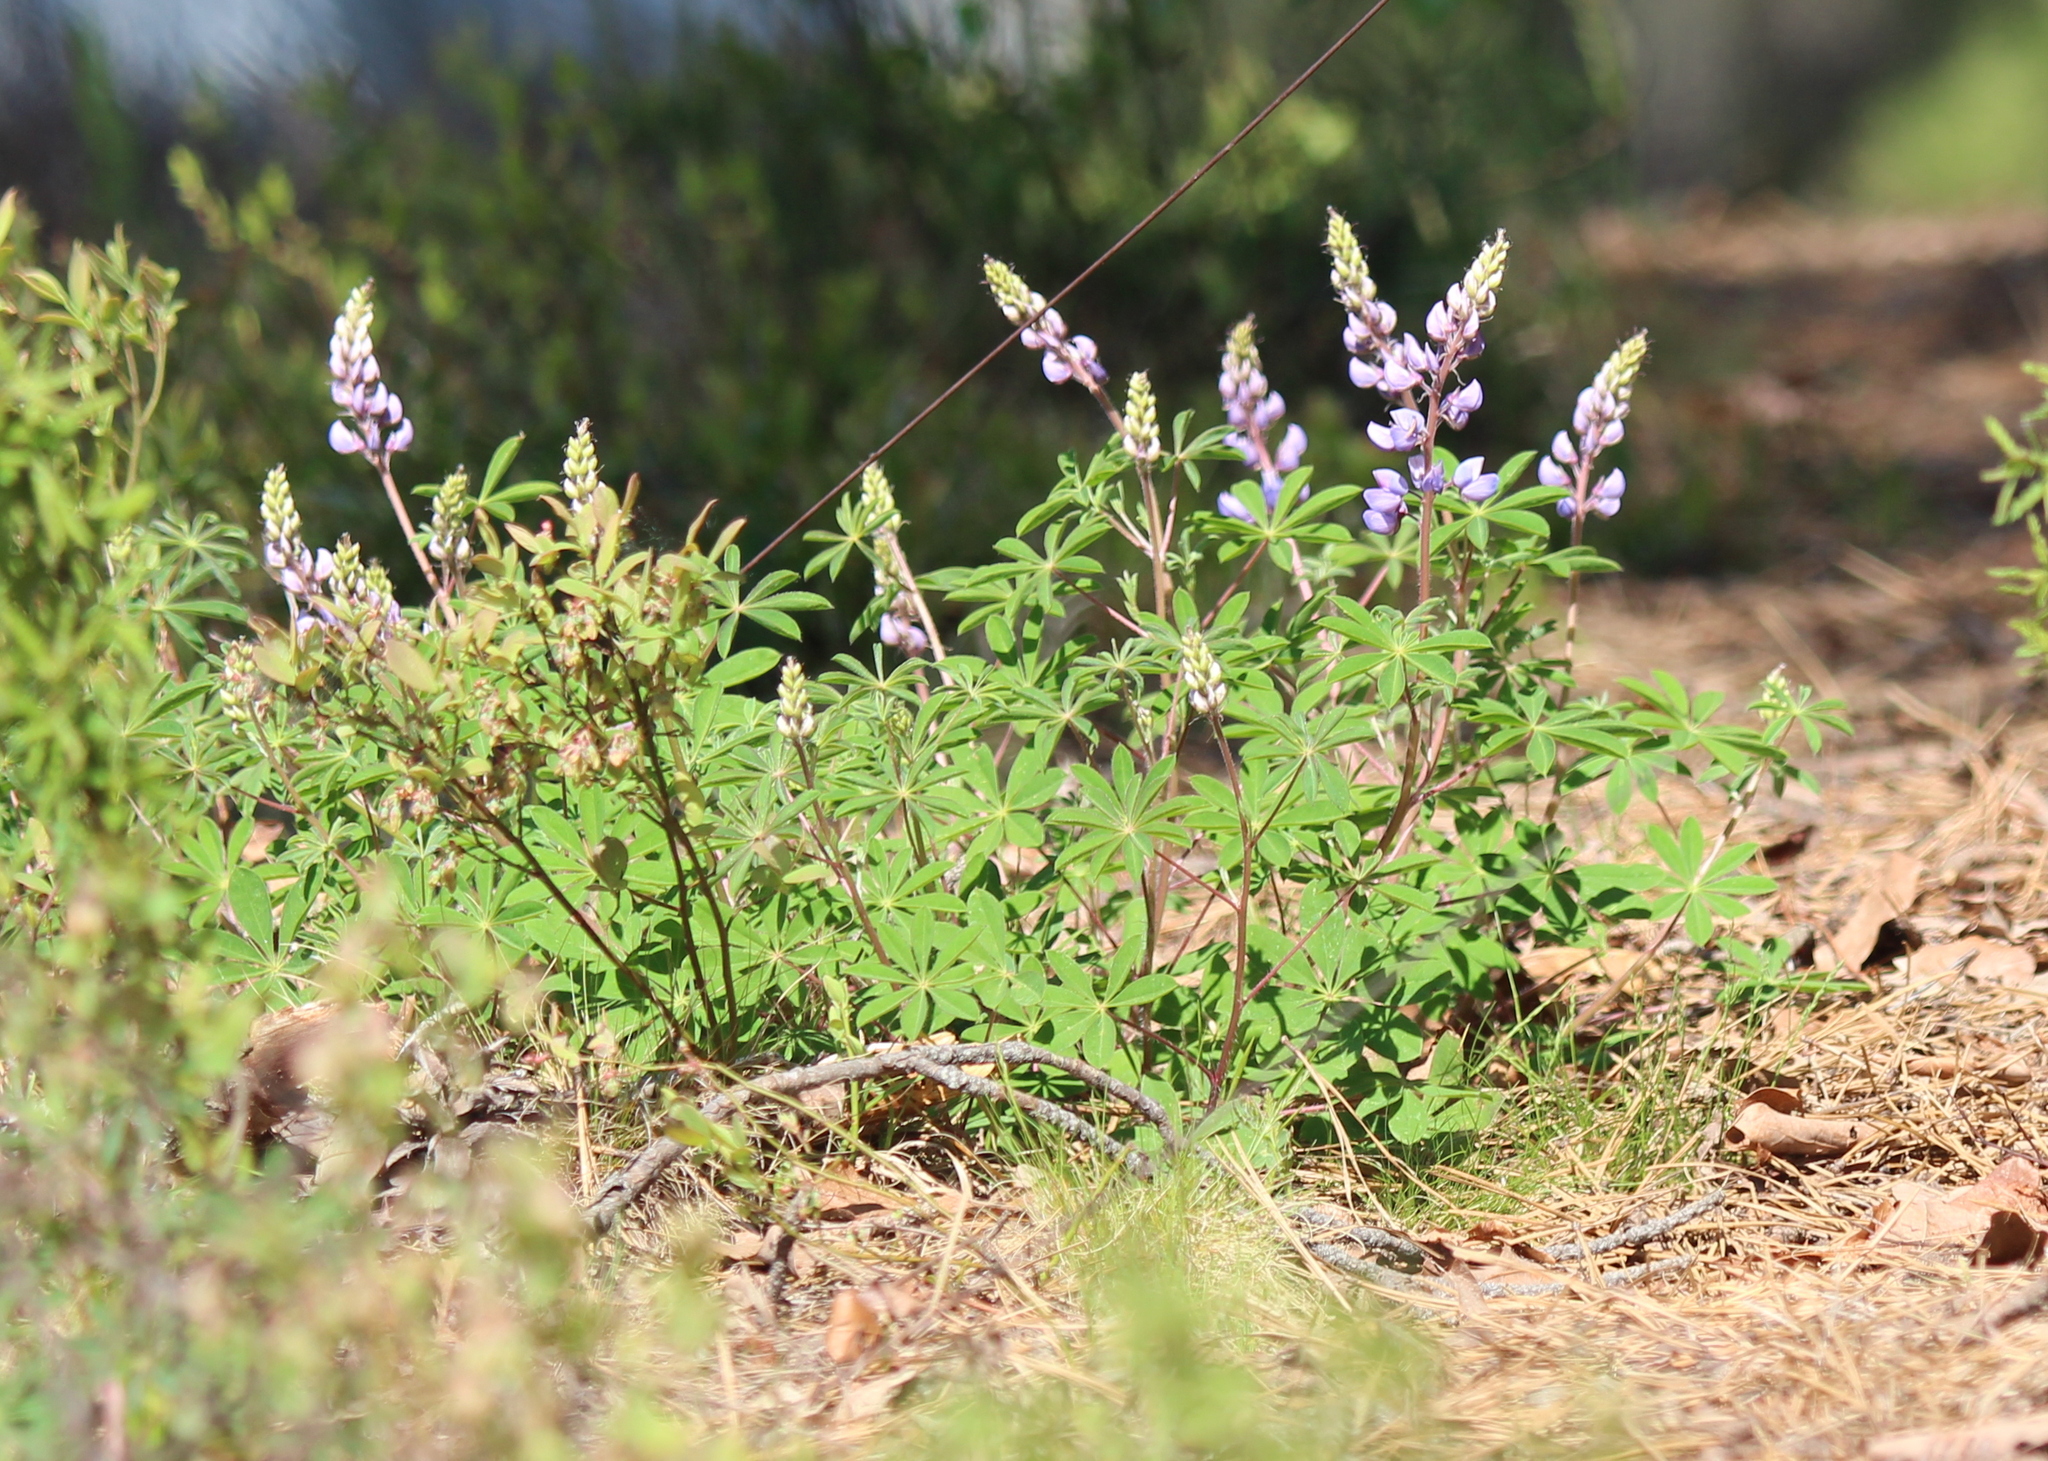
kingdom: Plantae
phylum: Tracheophyta
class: Magnoliopsida
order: Fabales
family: Fabaceae
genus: Lupinus
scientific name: Lupinus perennis
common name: Sundial lupine
